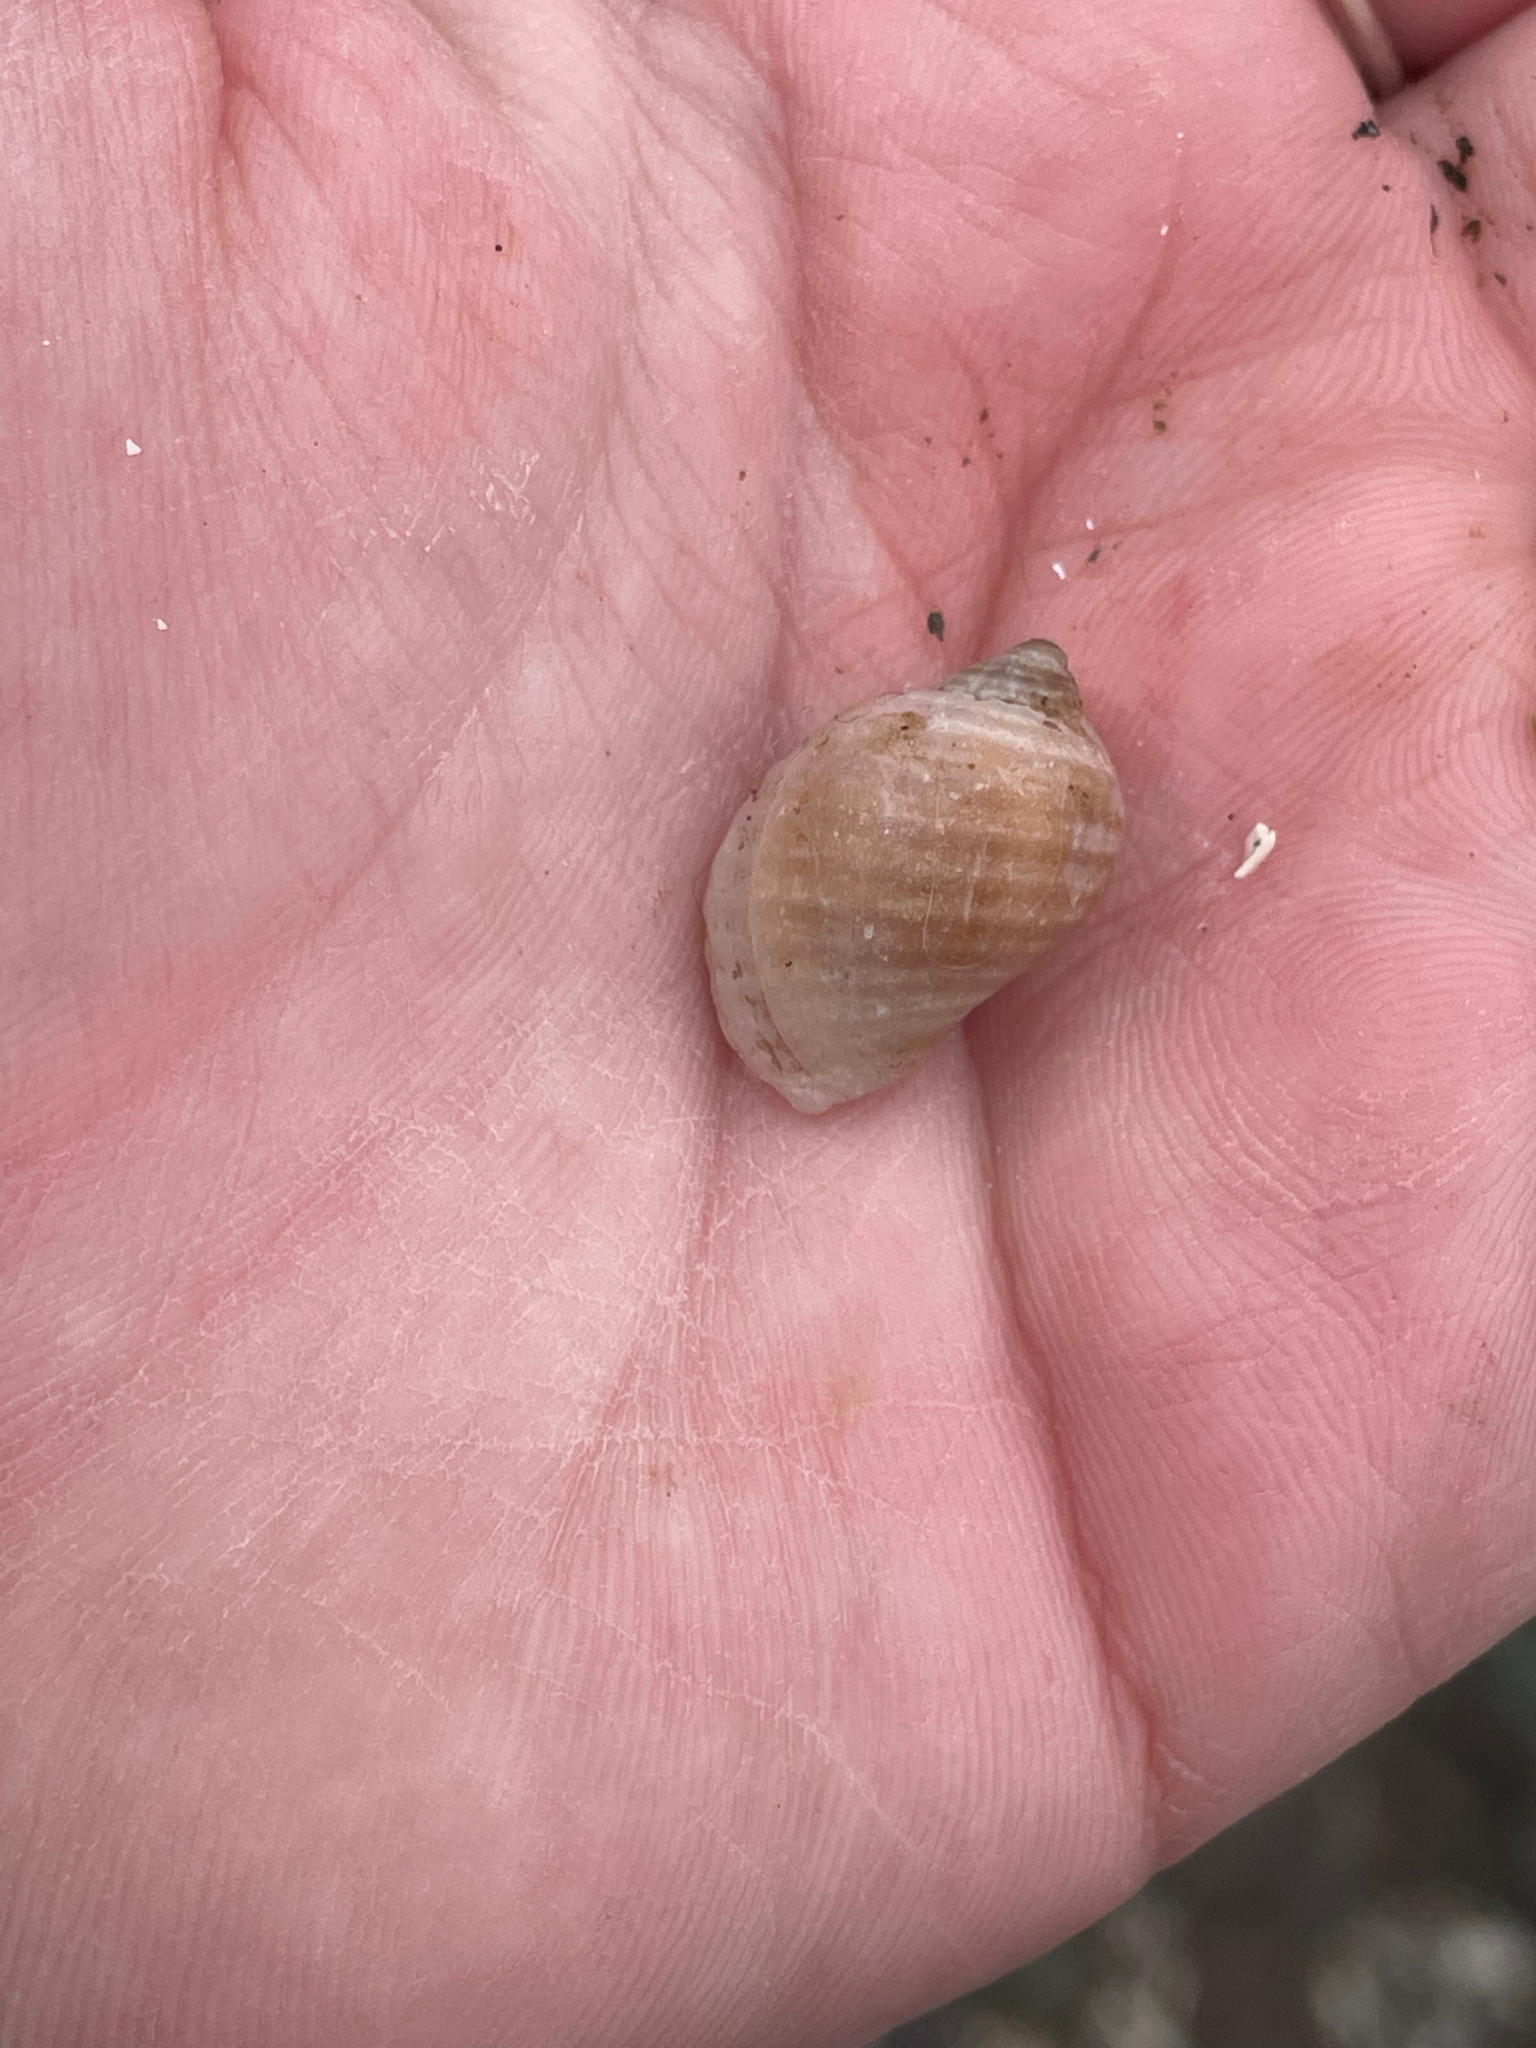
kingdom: Animalia
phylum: Mollusca
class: Gastropoda
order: Neogastropoda
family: Muricidae
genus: Nucella
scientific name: Nucella lapillus
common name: Dog whelk
